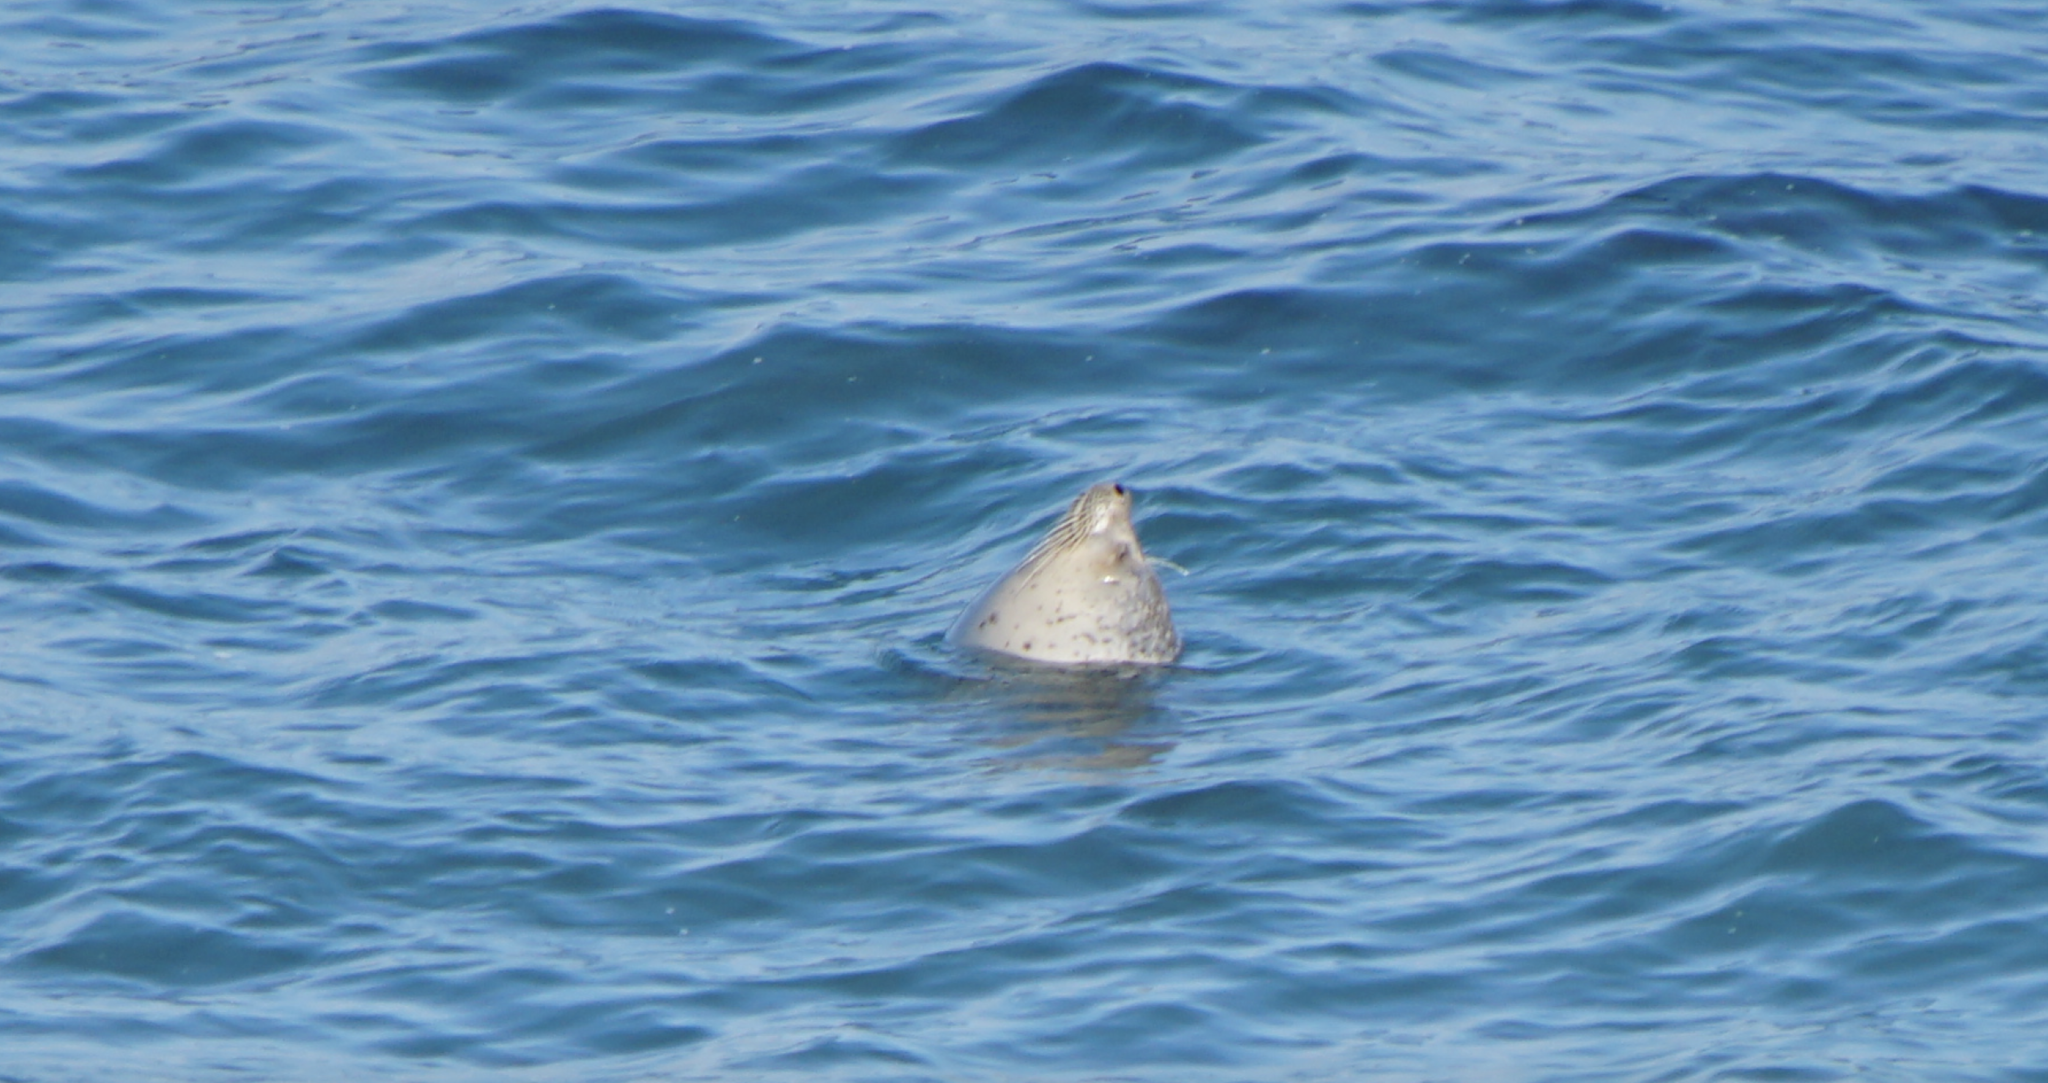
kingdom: Animalia
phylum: Chordata
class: Mammalia
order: Carnivora
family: Phocidae
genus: Phoca
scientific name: Phoca vitulina
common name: Harbor seal
